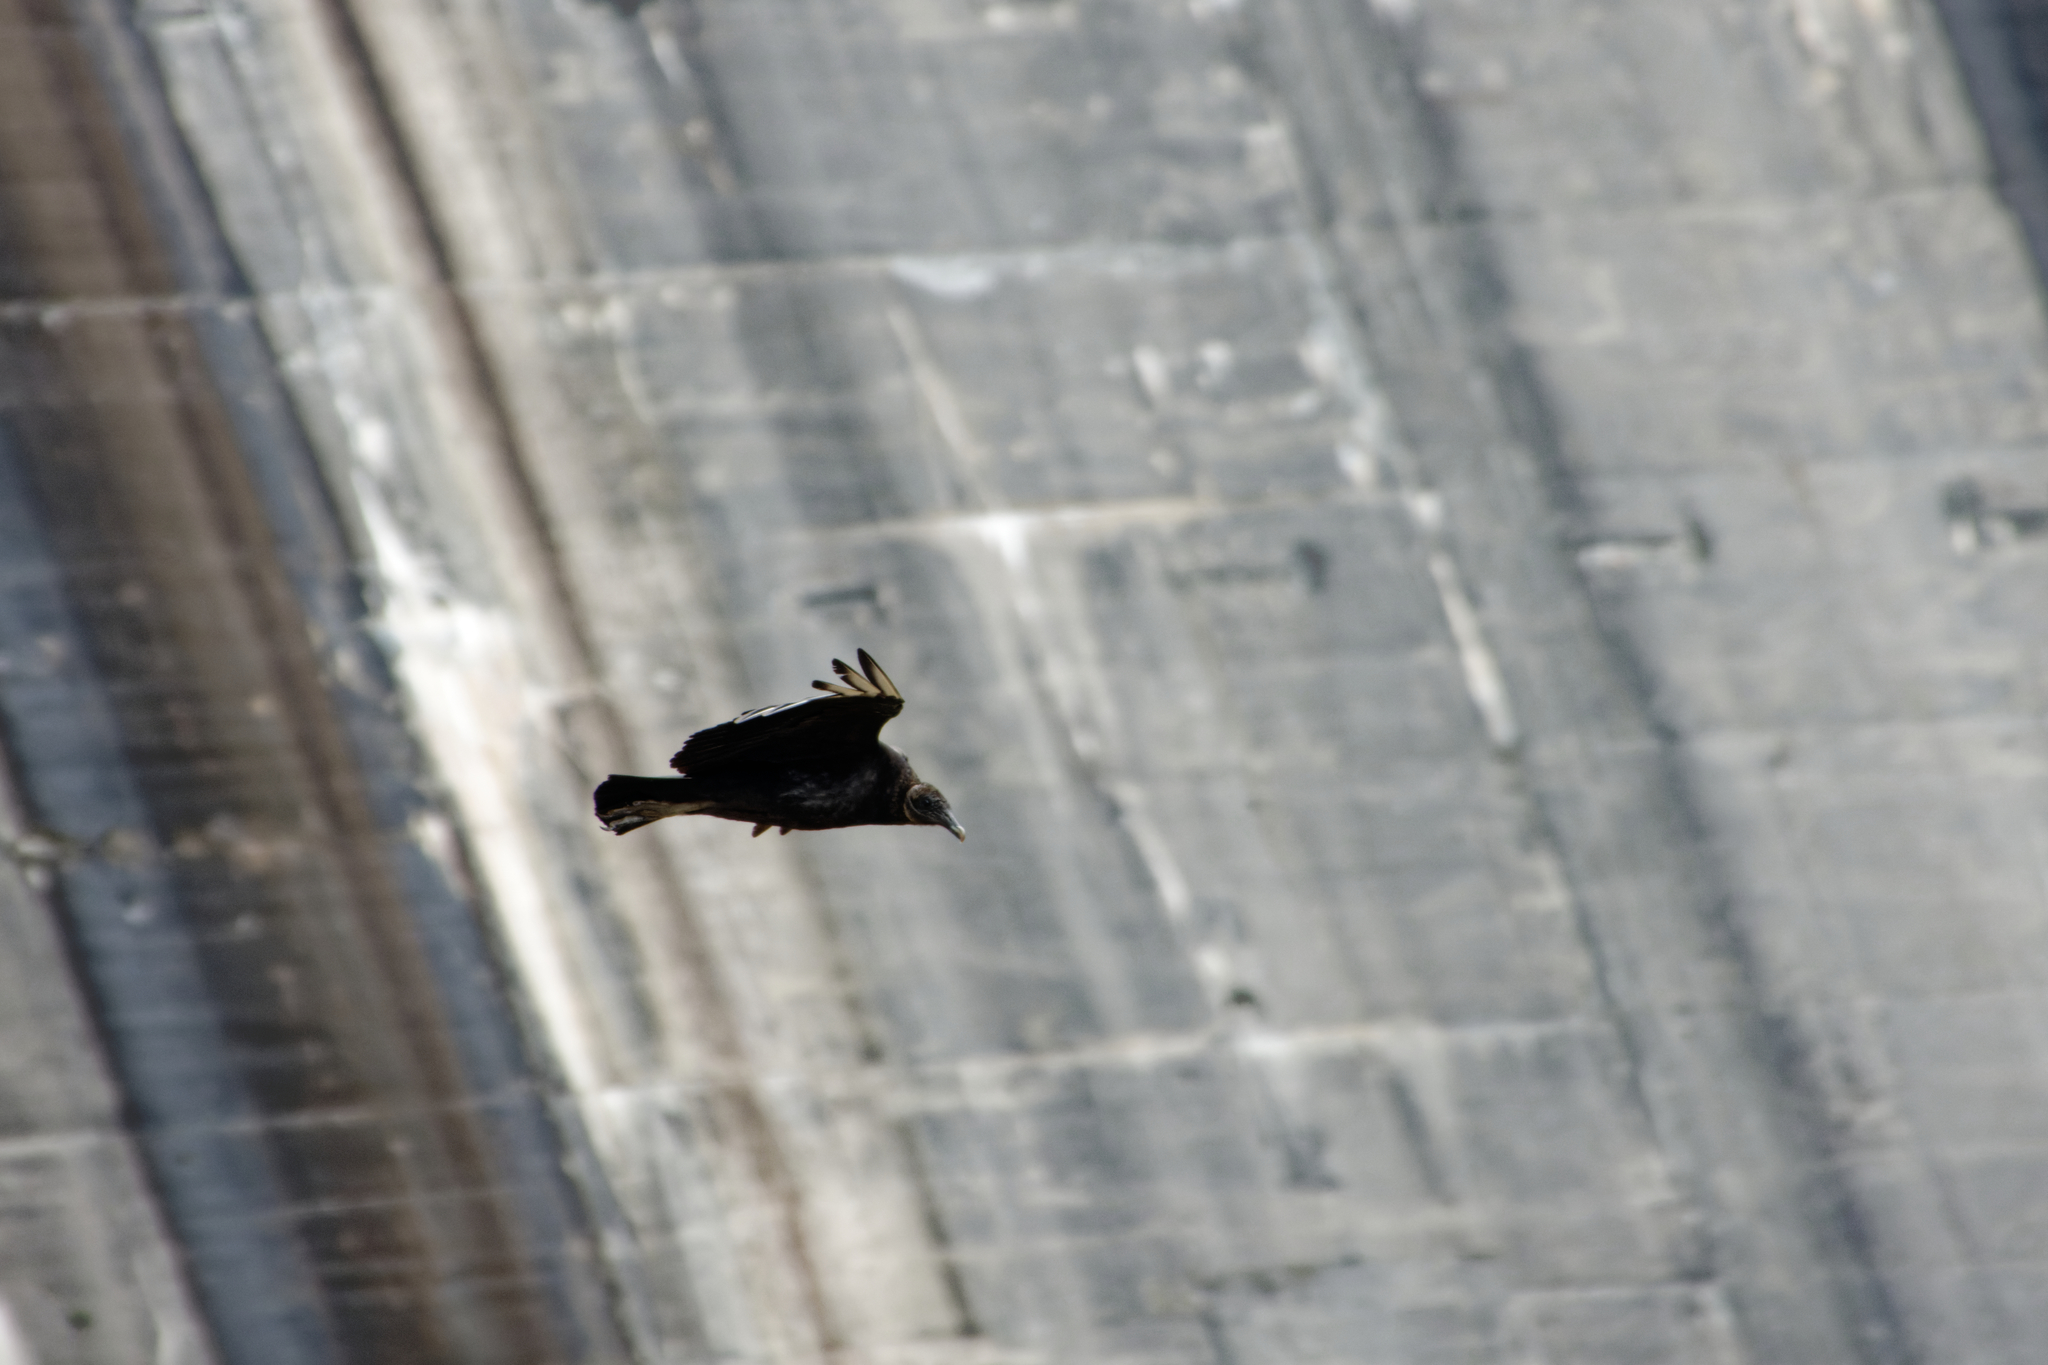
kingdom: Animalia
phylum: Chordata
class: Aves
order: Accipitriformes
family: Cathartidae
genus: Coragyps
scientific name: Coragyps atratus
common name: Black vulture
